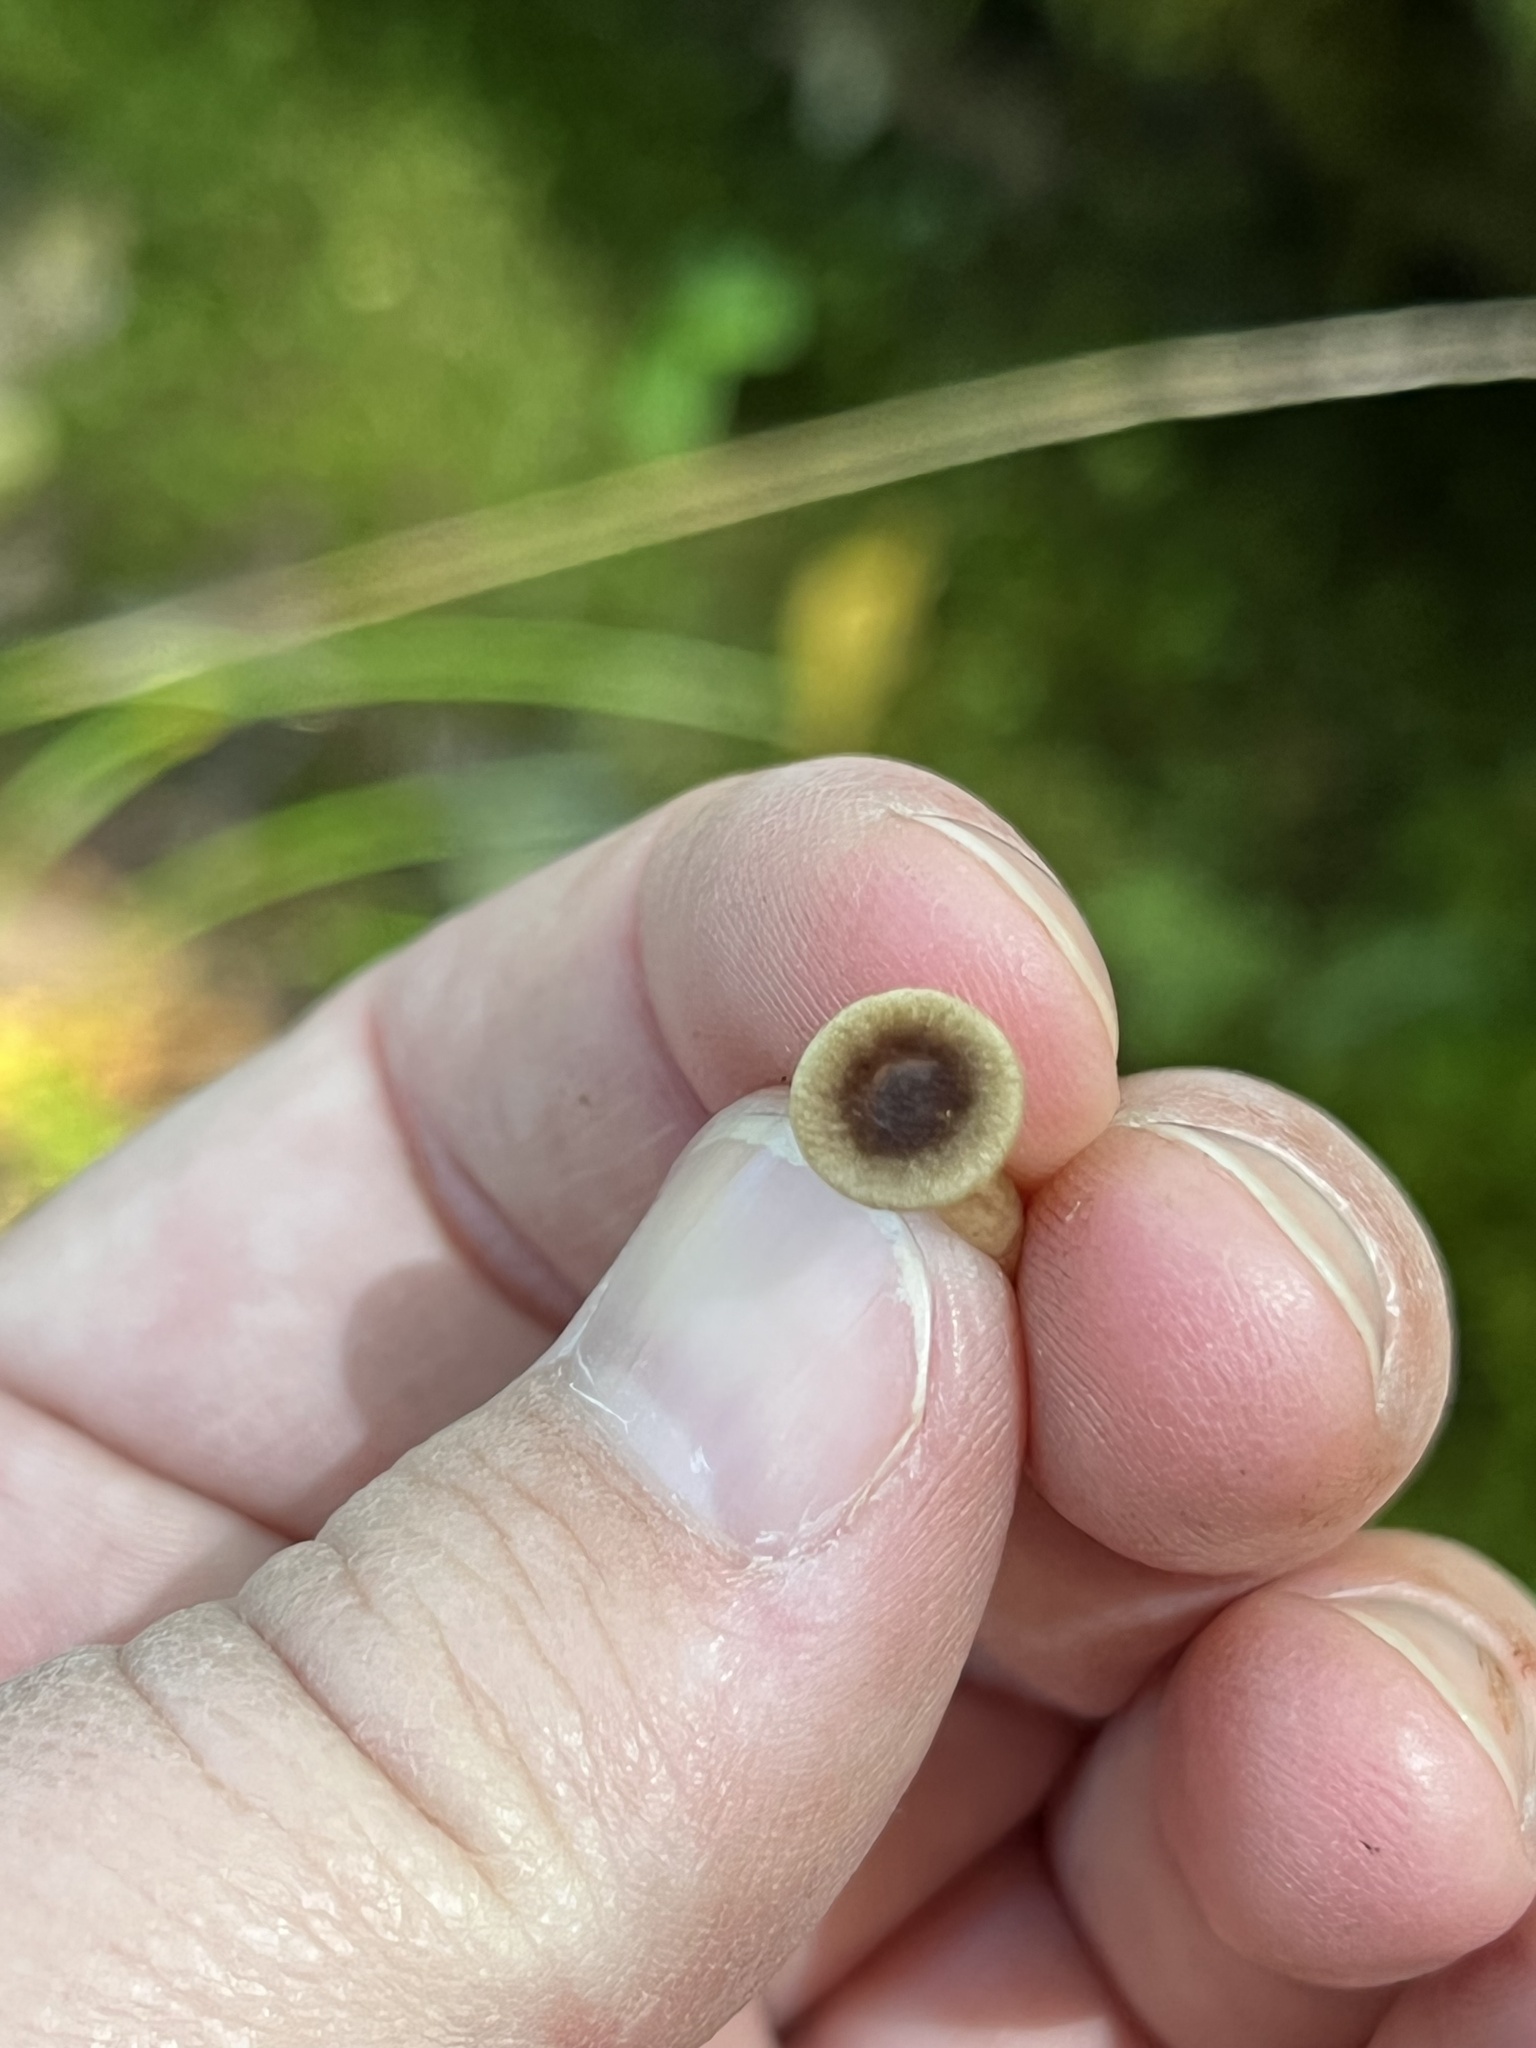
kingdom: Fungi
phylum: Basidiomycota
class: Agaricomycetes
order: Russulales
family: Russulaceae
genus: Lactarius
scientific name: Lactarius griseus
